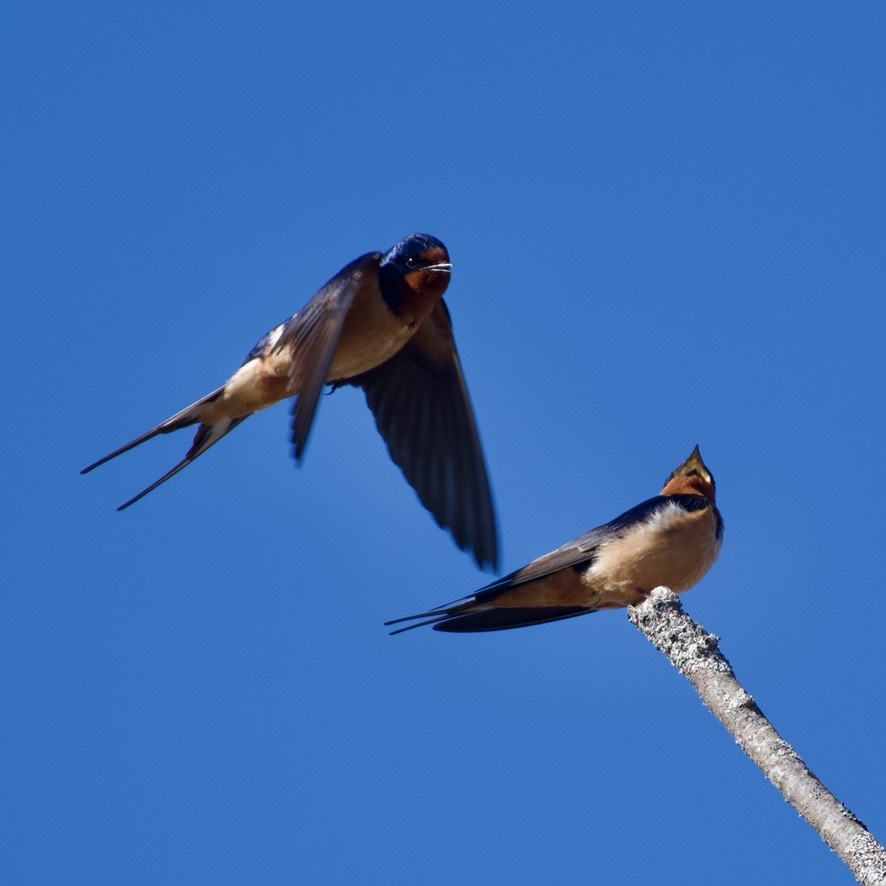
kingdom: Animalia
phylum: Chordata
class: Aves
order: Passeriformes
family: Hirundinidae
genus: Hirundo
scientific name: Hirundo rustica
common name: Barn swallow
